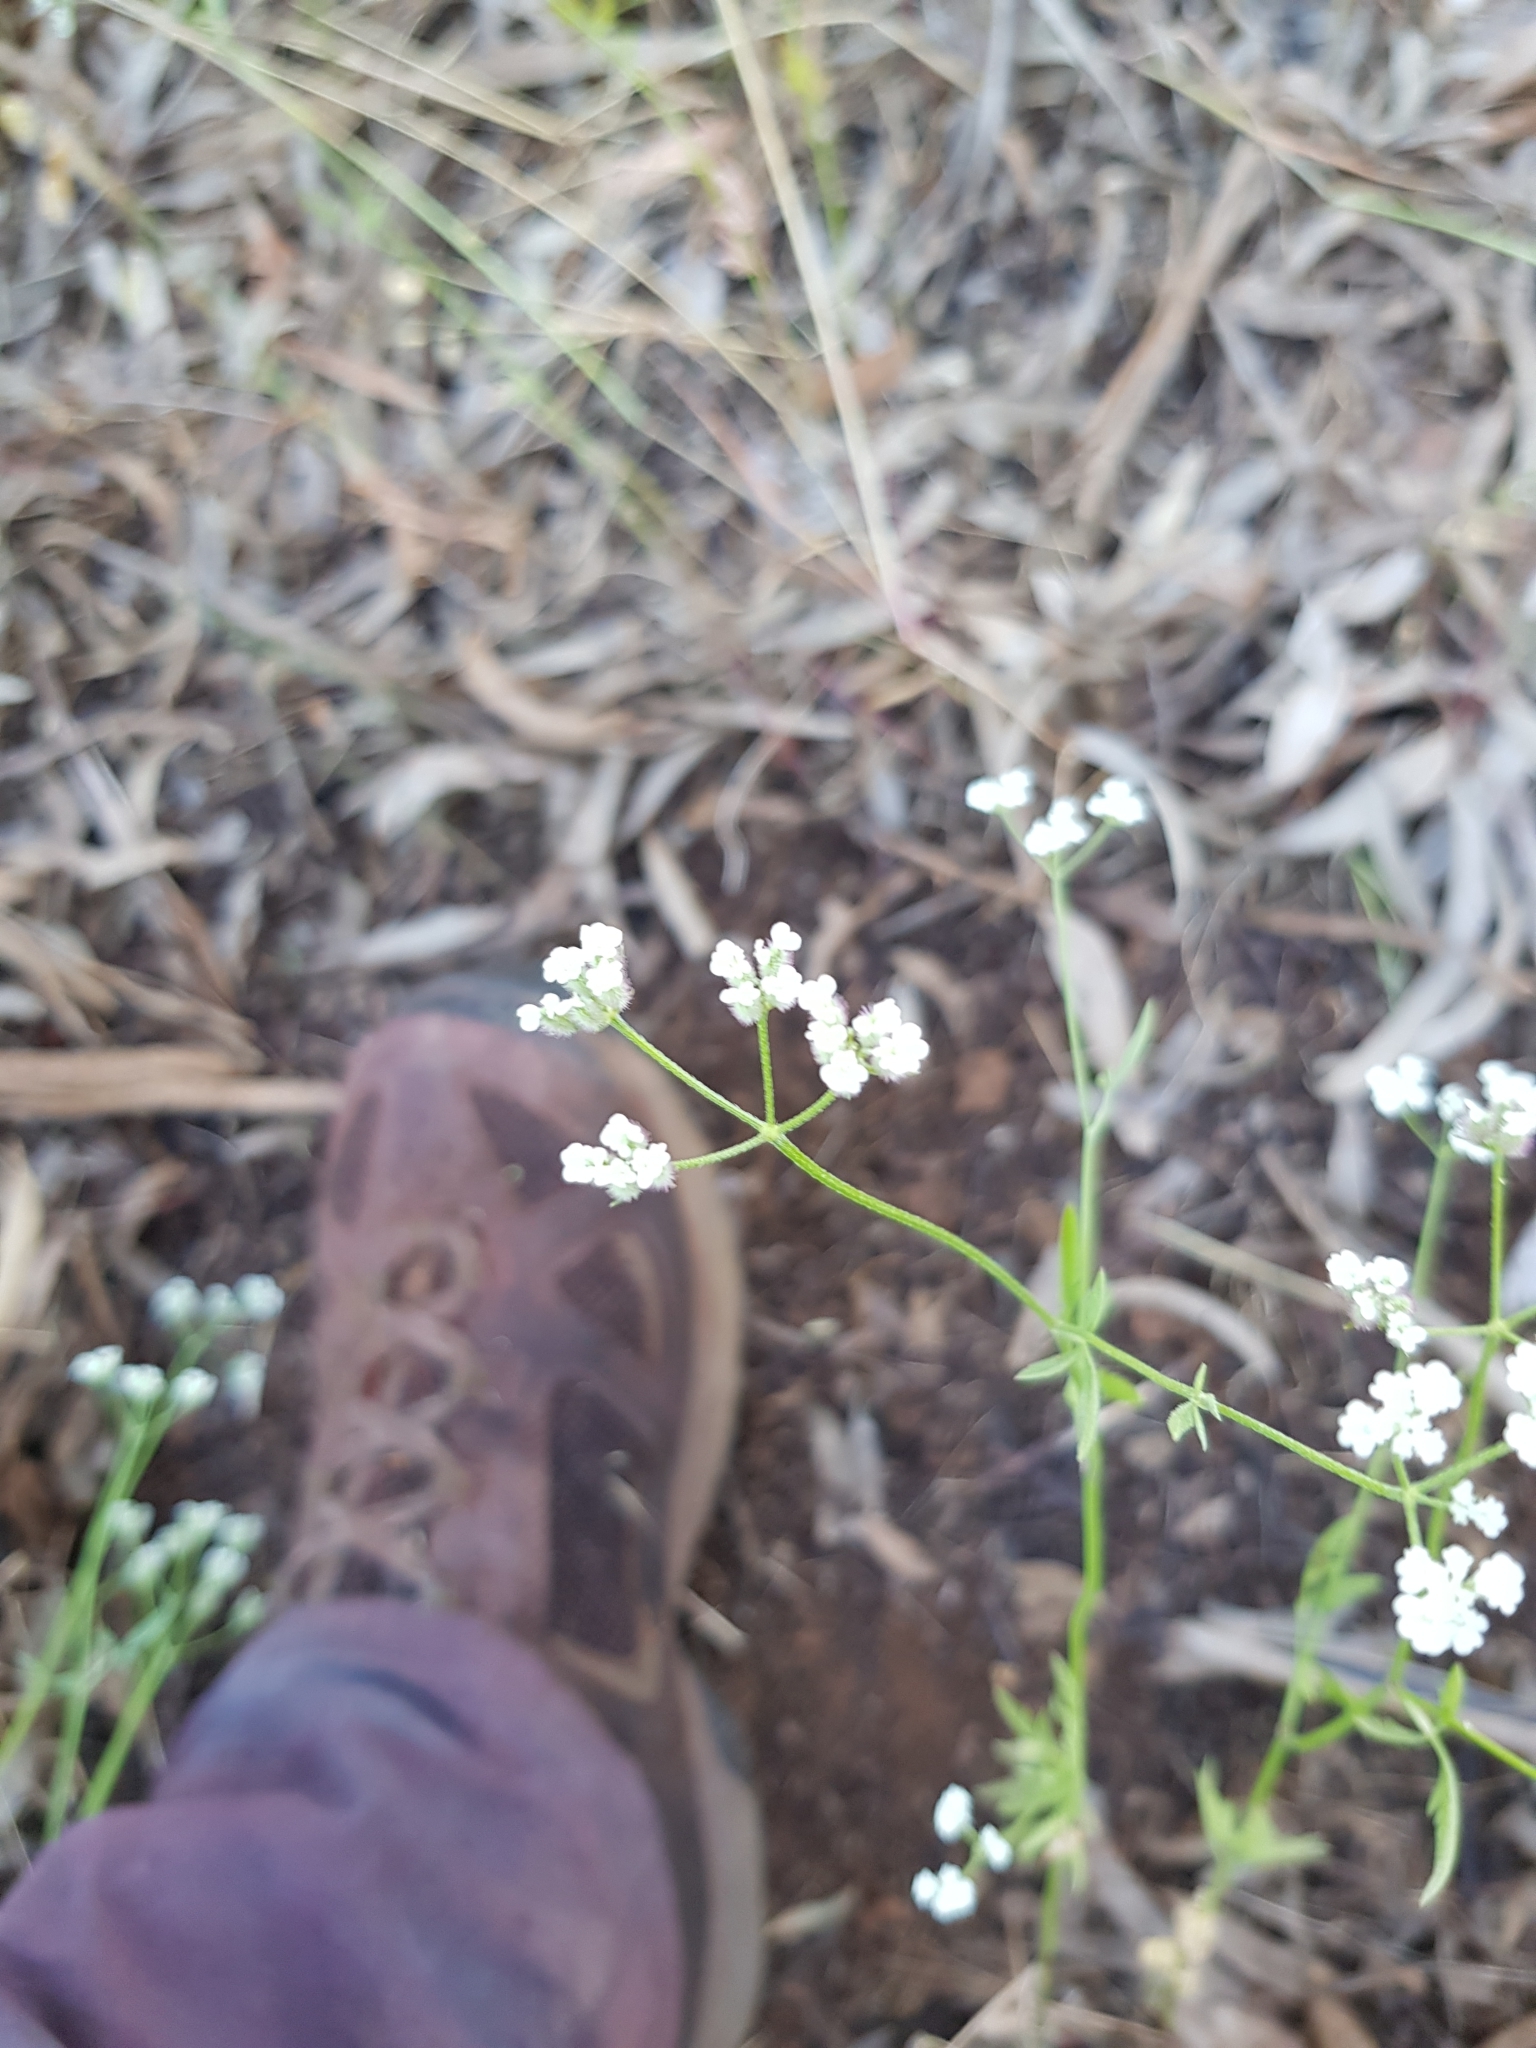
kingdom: Plantae
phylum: Tracheophyta
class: Magnoliopsida
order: Apiales
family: Apiaceae
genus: Torilis
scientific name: Torilis arvensis
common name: Spreading hedge-parsley
